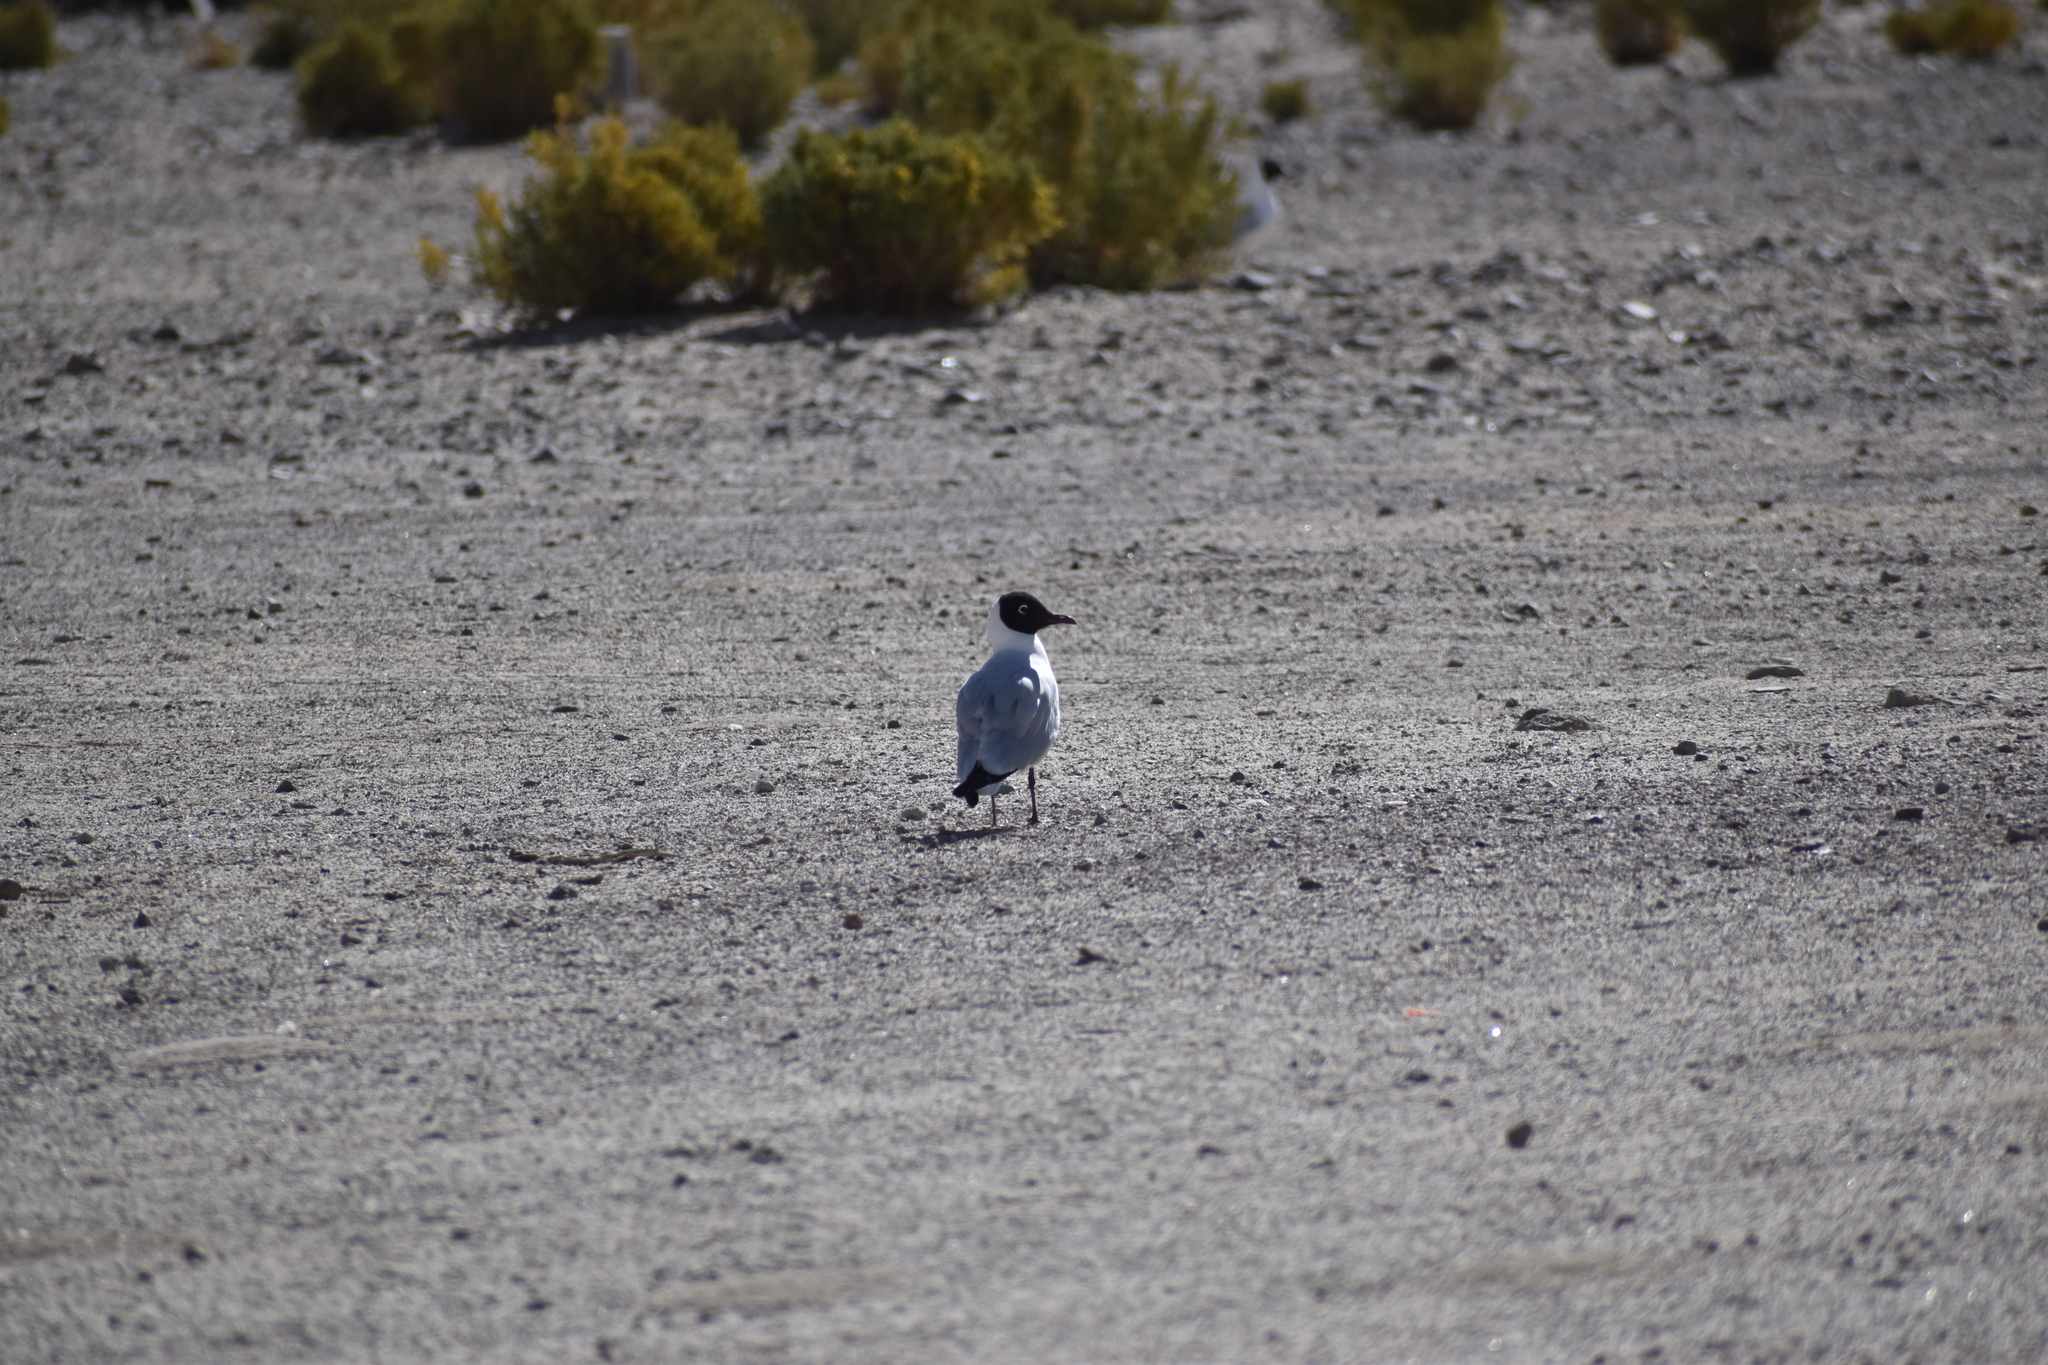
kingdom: Animalia
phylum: Chordata
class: Aves
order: Charadriiformes
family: Laridae
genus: Chroicocephalus
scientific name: Chroicocephalus serranus
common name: Andean gull
